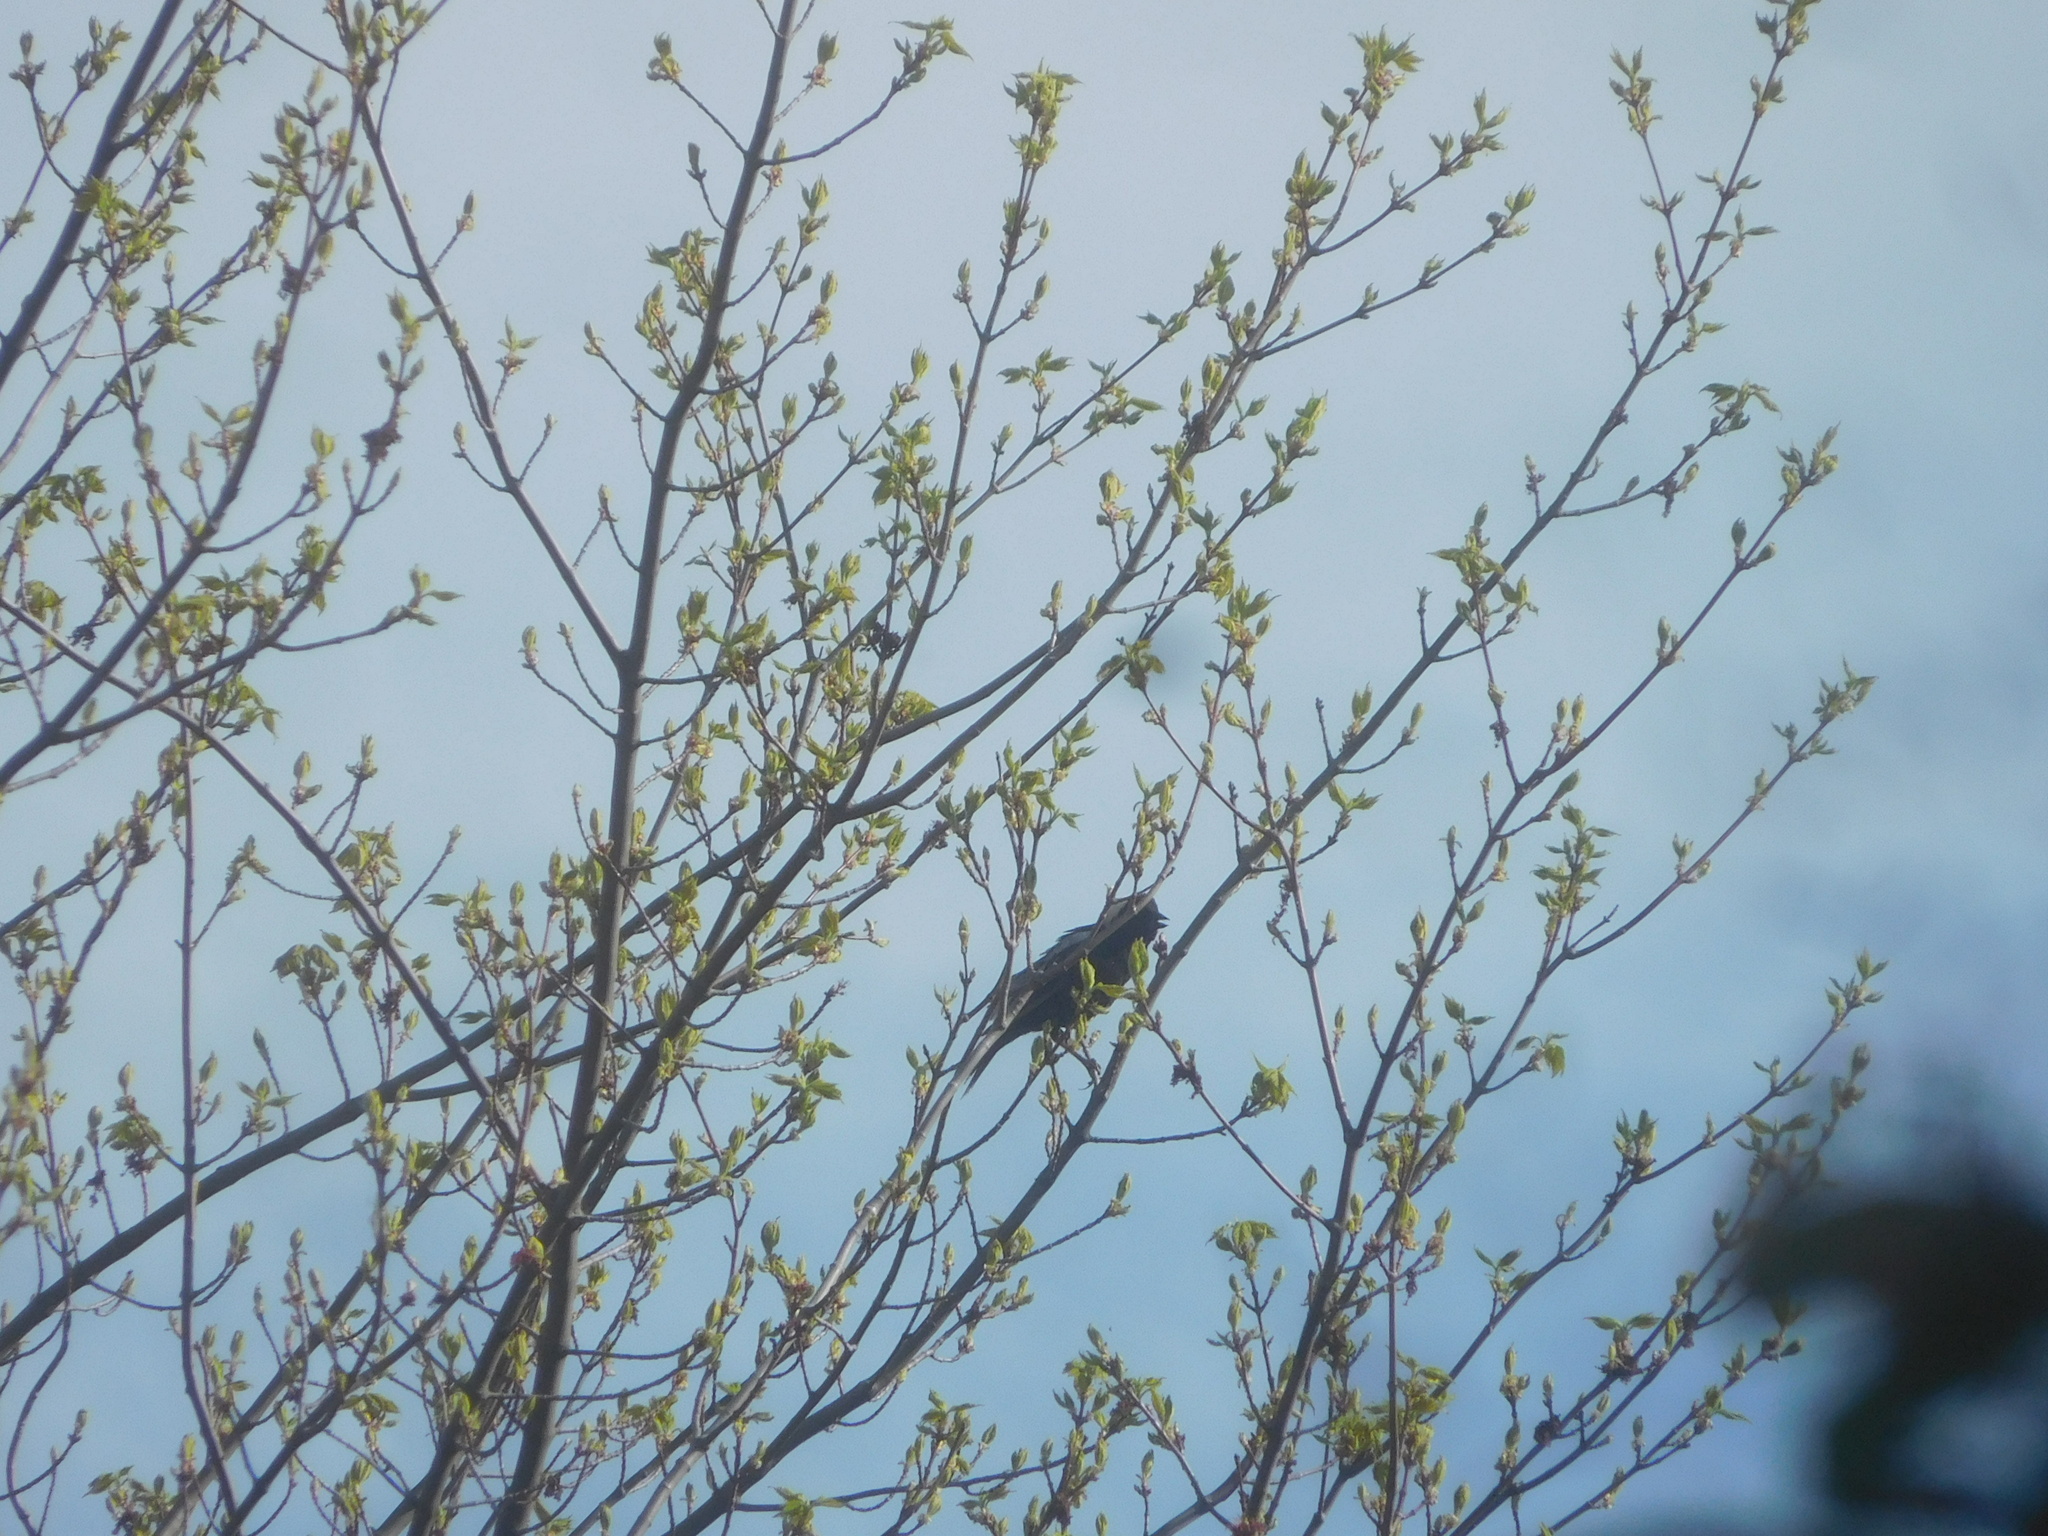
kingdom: Animalia
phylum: Chordata
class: Aves
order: Passeriformes
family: Icteridae
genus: Dolichonyx
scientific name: Dolichonyx oryzivorus
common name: Bobolink
